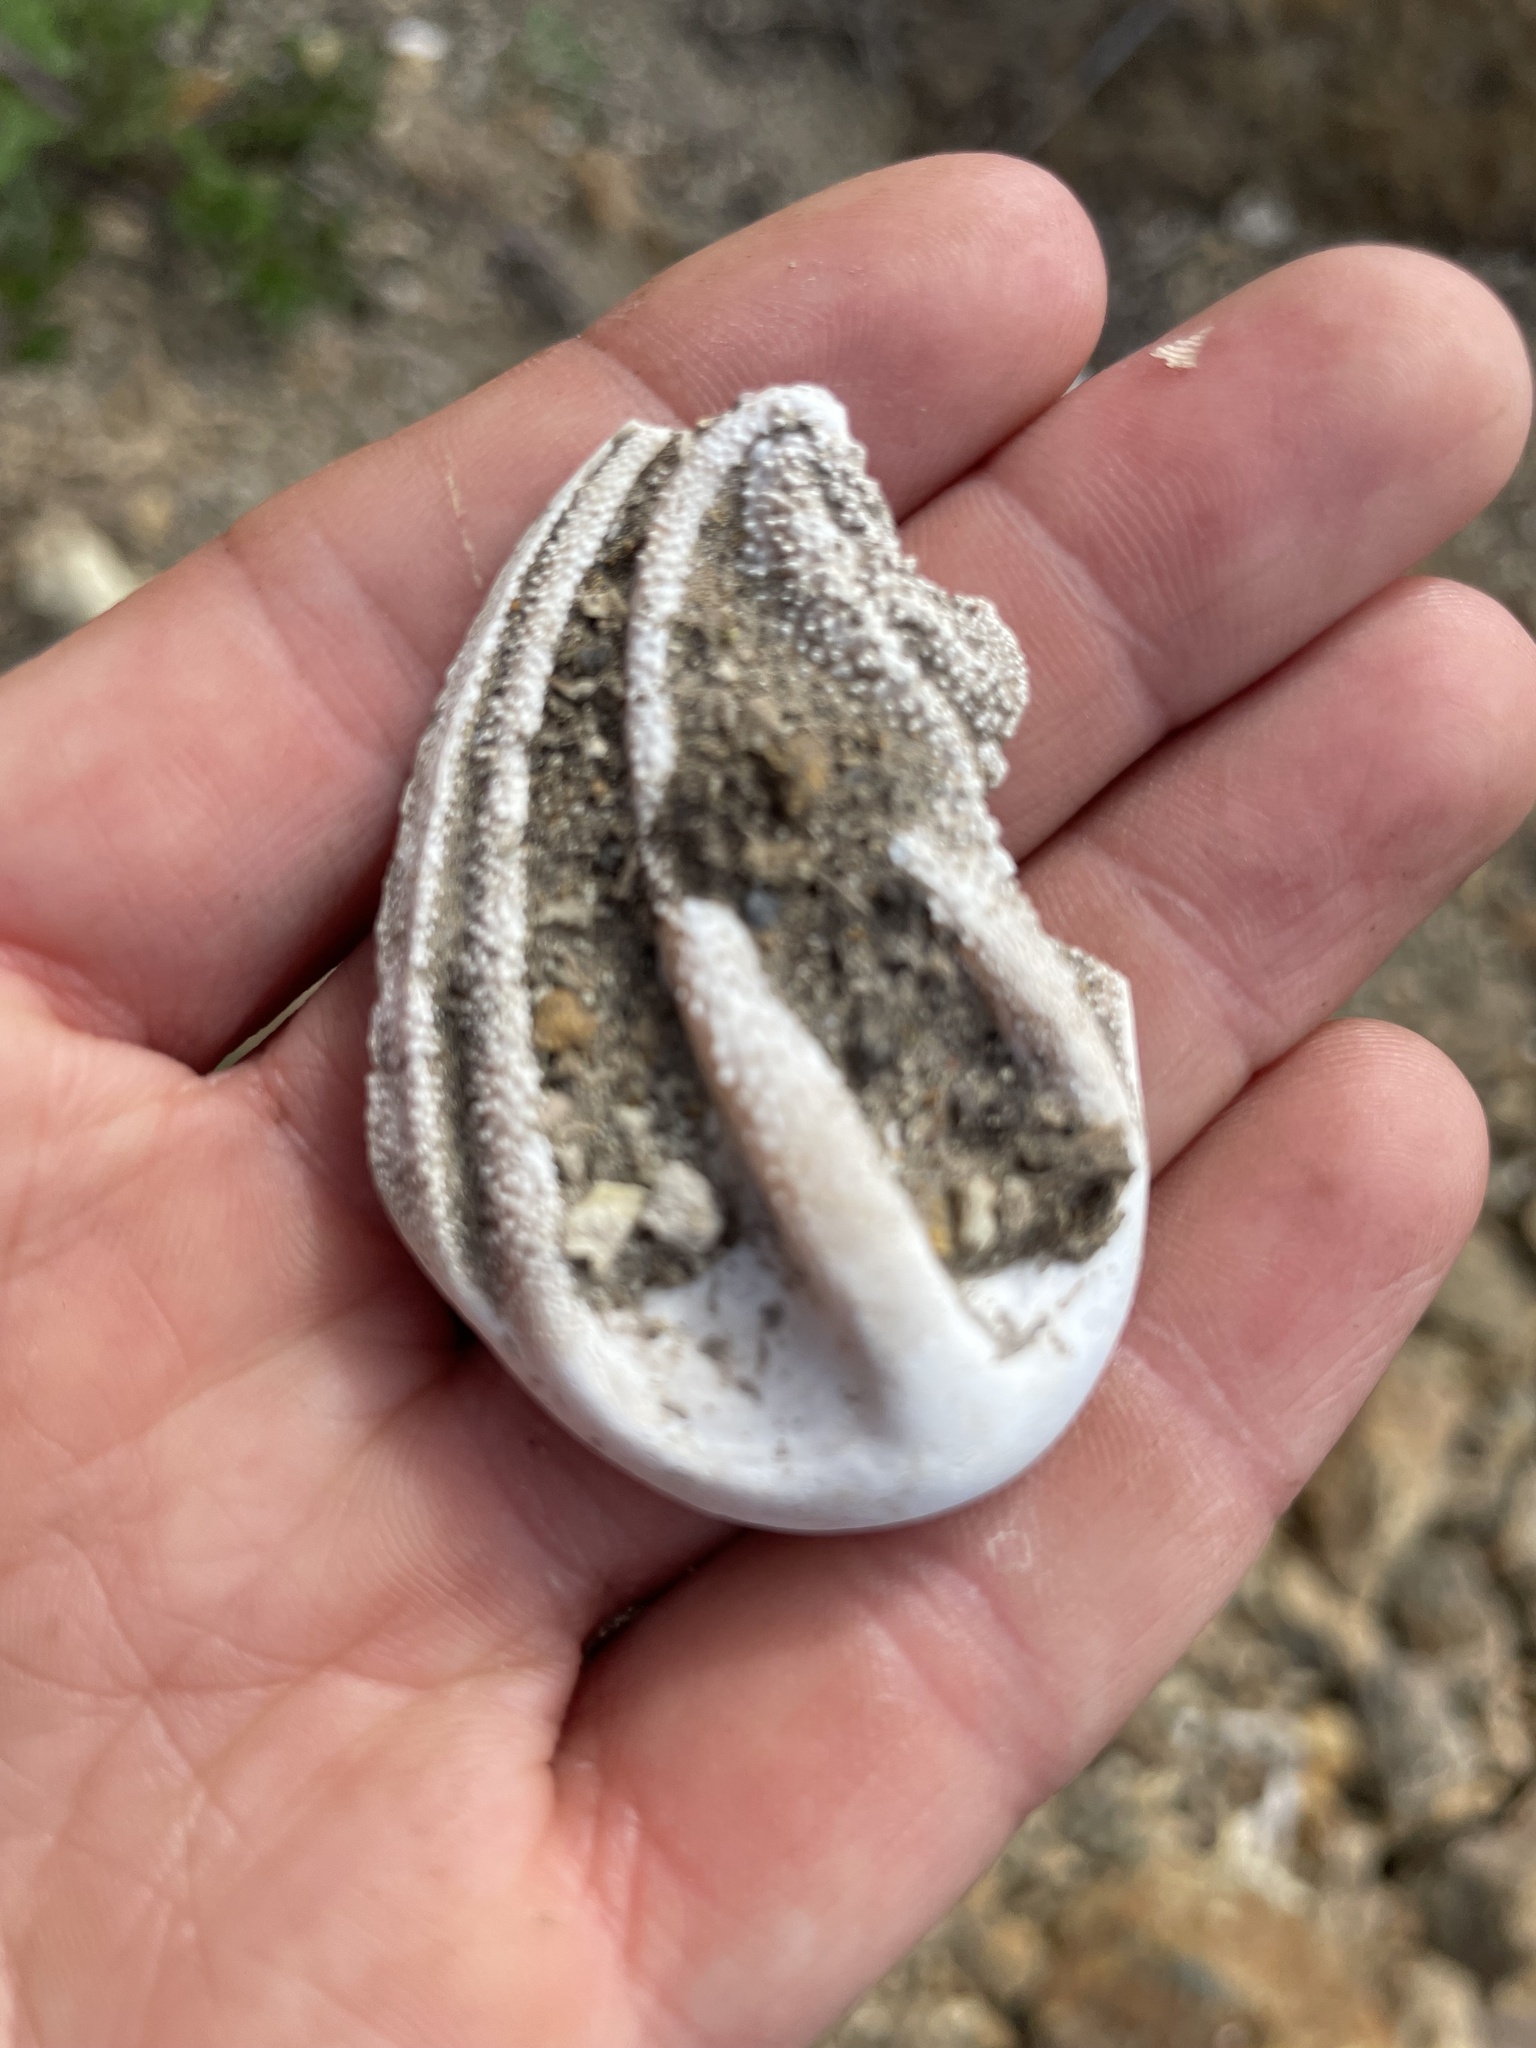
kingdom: Animalia
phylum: Mollusca
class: Gastropoda
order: Trochida
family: Turbinidae
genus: Megastraea
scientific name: Megastraea undosa
